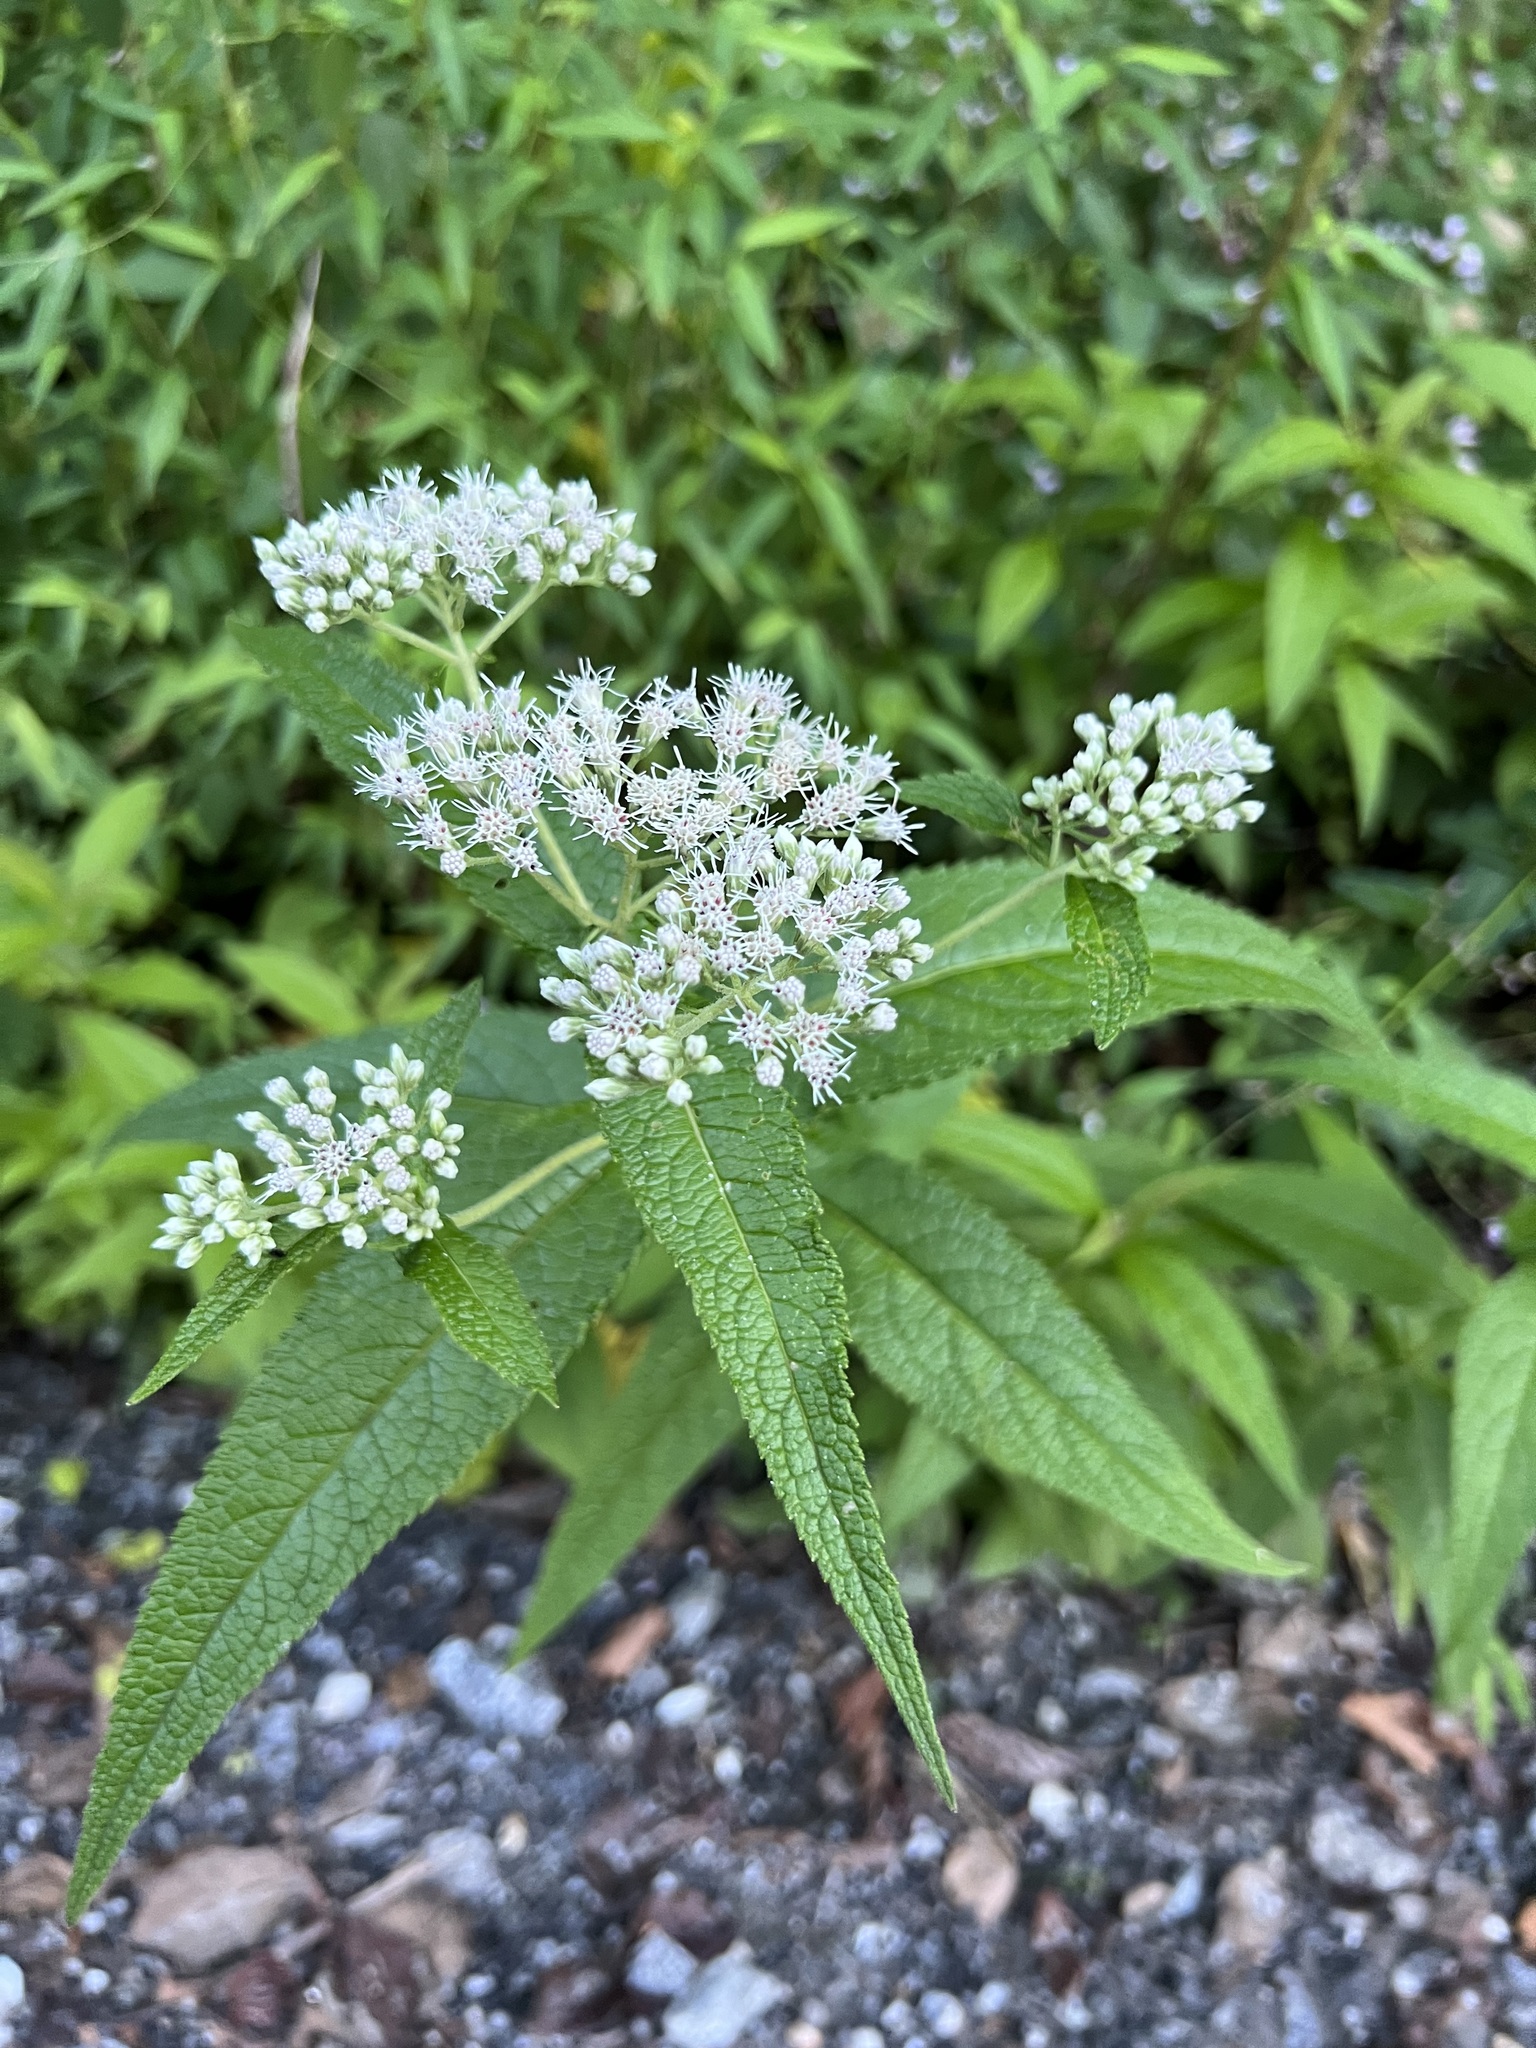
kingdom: Plantae
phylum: Tracheophyta
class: Magnoliopsida
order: Asterales
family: Asteraceae
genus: Eupatorium
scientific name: Eupatorium perfoliatum
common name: Boneset
